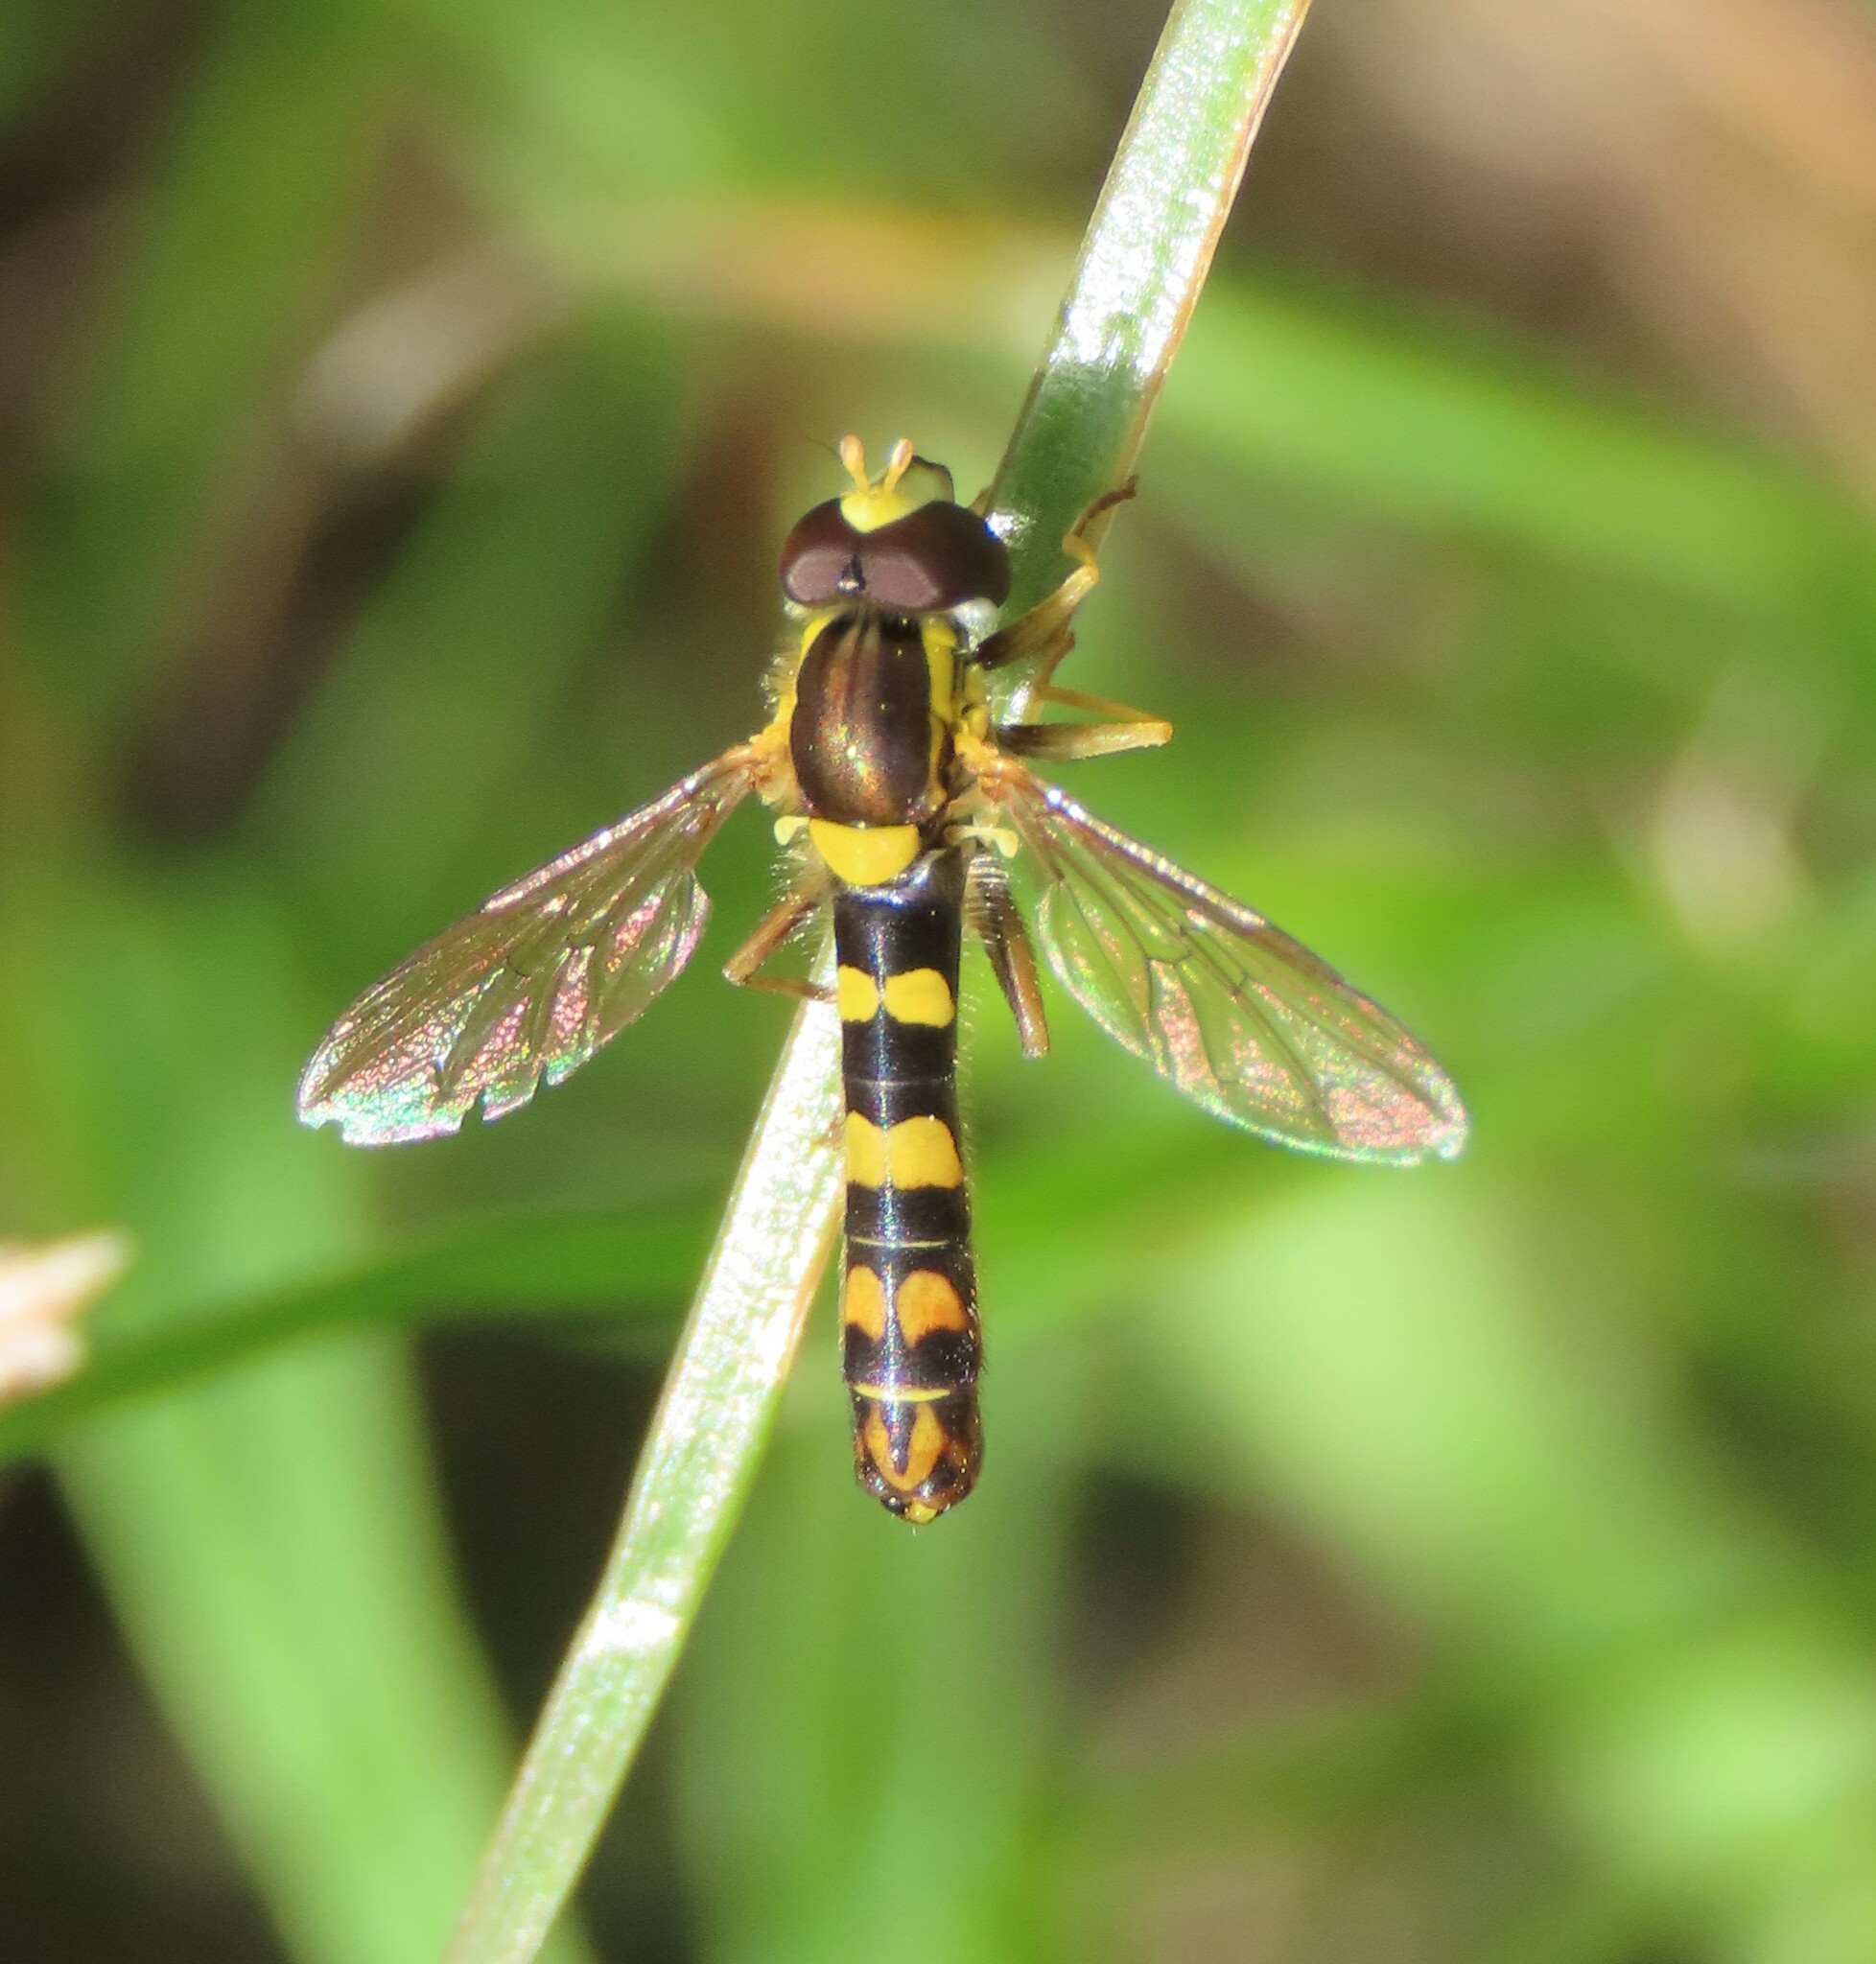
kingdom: Animalia
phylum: Arthropoda
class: Insecta
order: Diptera
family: Syrphidae
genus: Sphaerophoria
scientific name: Sphaerophoria scripta
